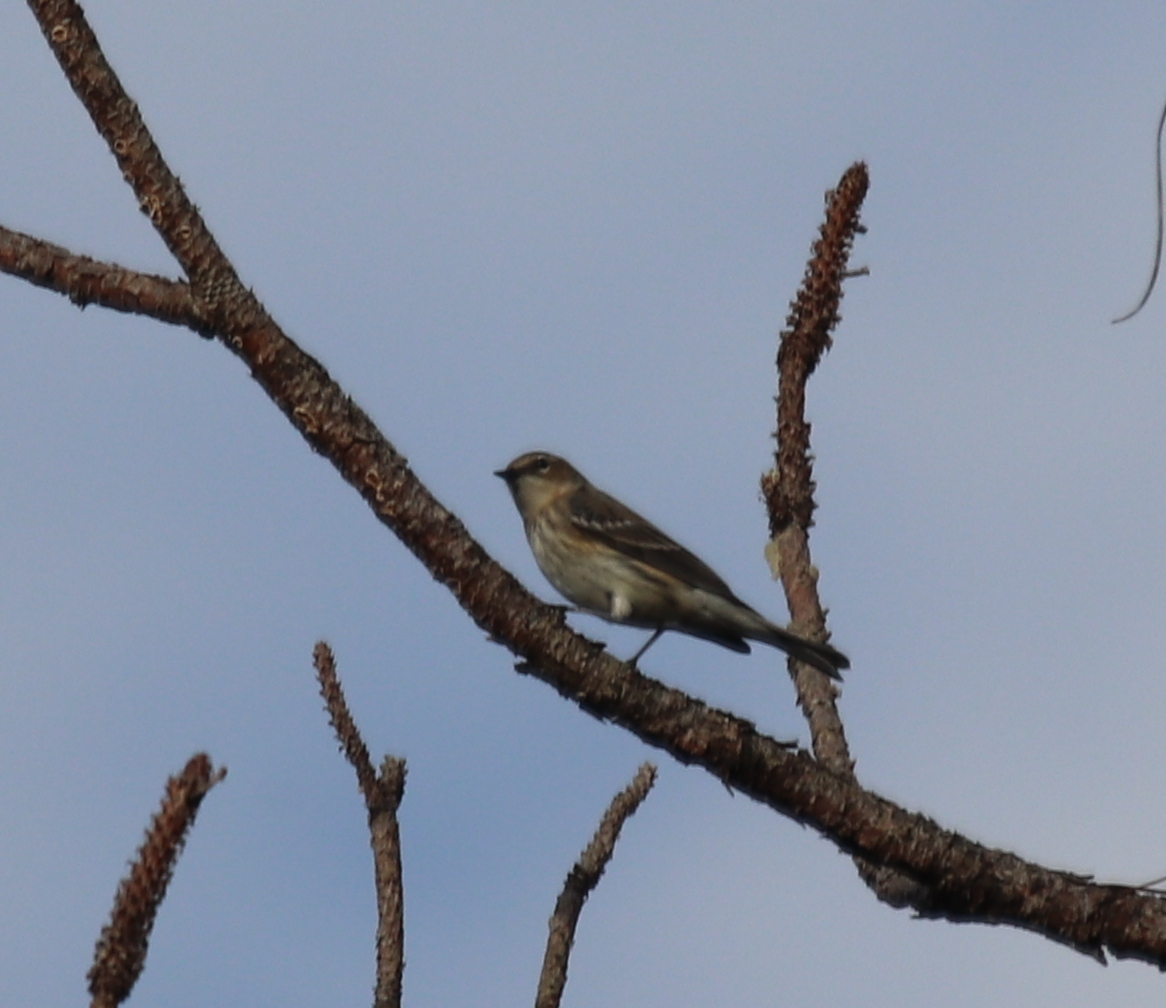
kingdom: Animalia
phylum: Chordata
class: Aves
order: Passeriformes
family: Parulidae
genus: Setophaga
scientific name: Setophaga coronata
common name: Myrtle warbler
